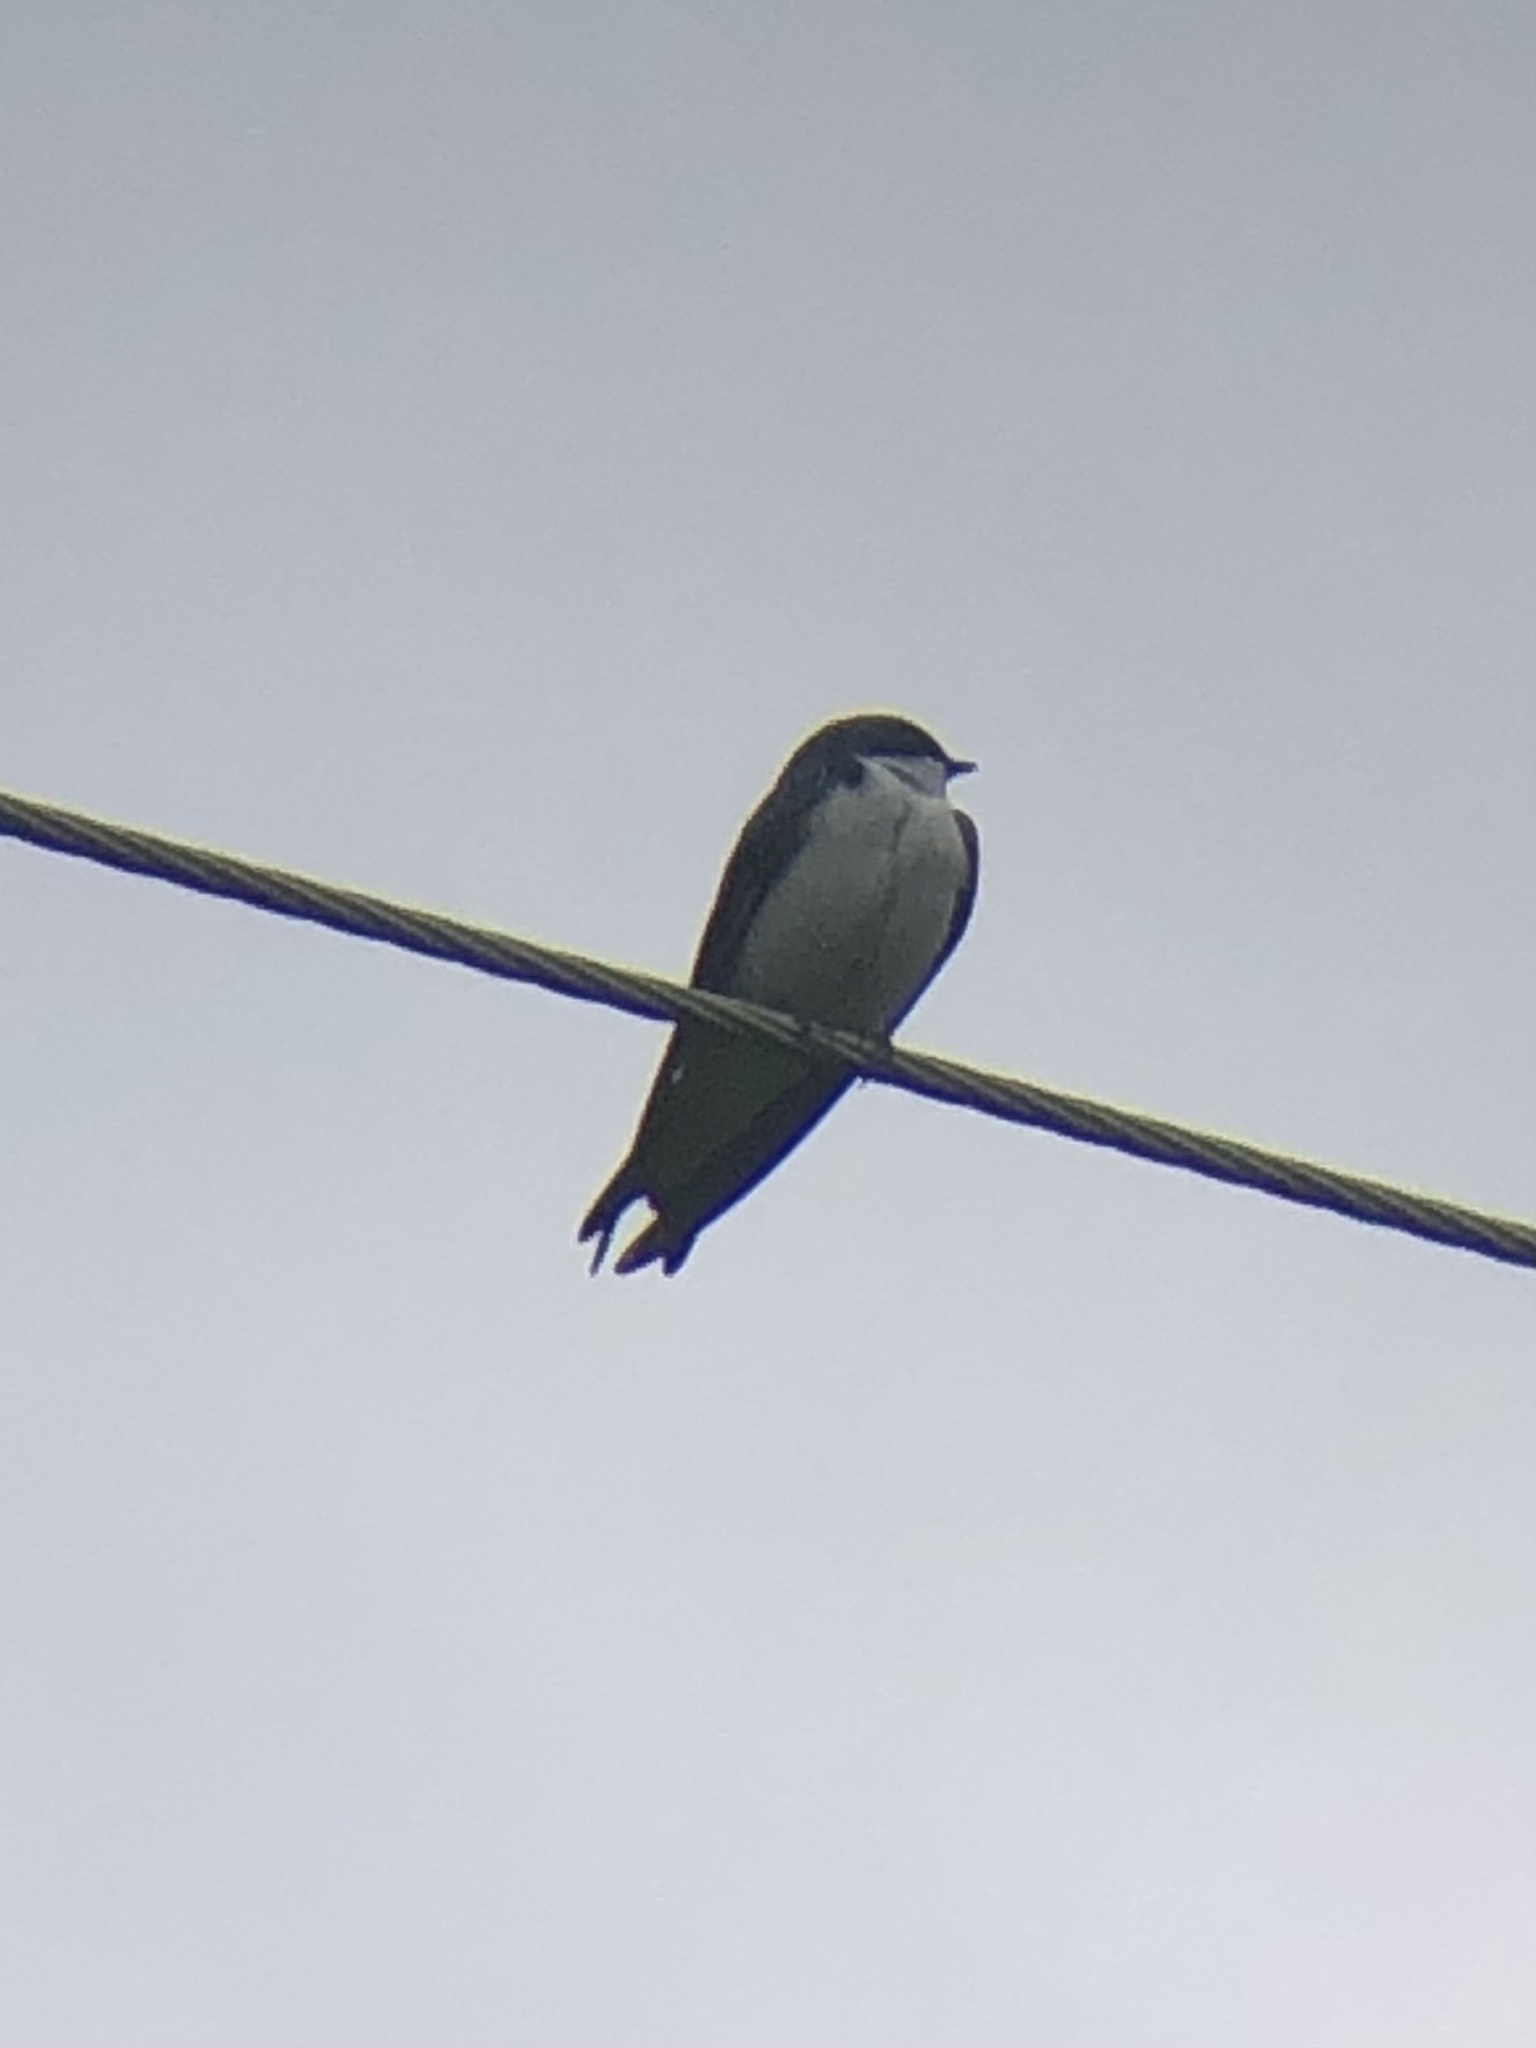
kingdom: Animalia
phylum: Chordata
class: Aves
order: Passeriformes
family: Hirundinidae
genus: Tachycineta
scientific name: Tachycineta bicolor
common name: Tree swallow
